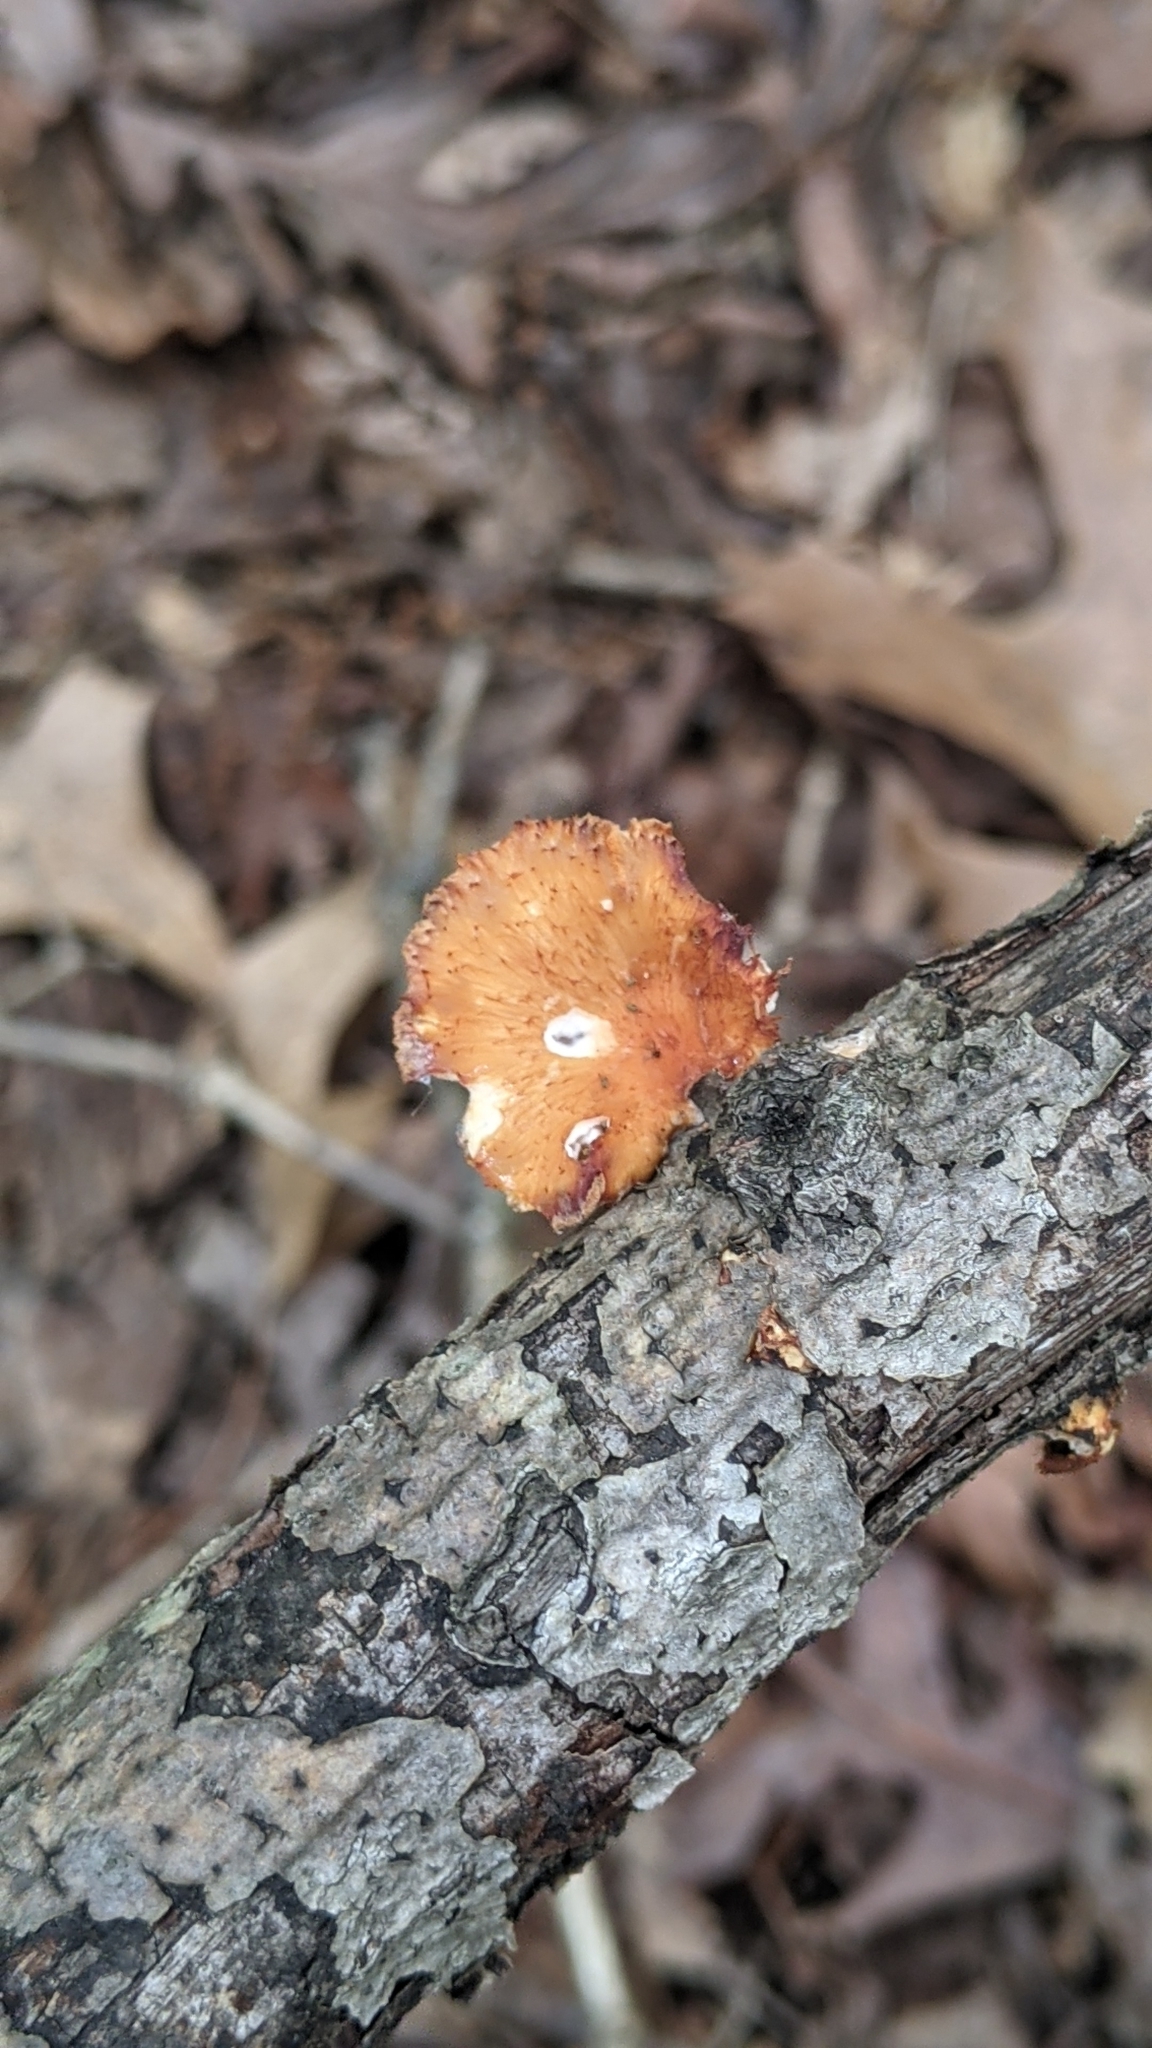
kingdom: Fungi
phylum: Basidiomycota
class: Agaricomycetes
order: Polyporales
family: Polyporaceae
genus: Neofavolus
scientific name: Neofavolus alveolaris
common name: Hexagonal-pored polypore
